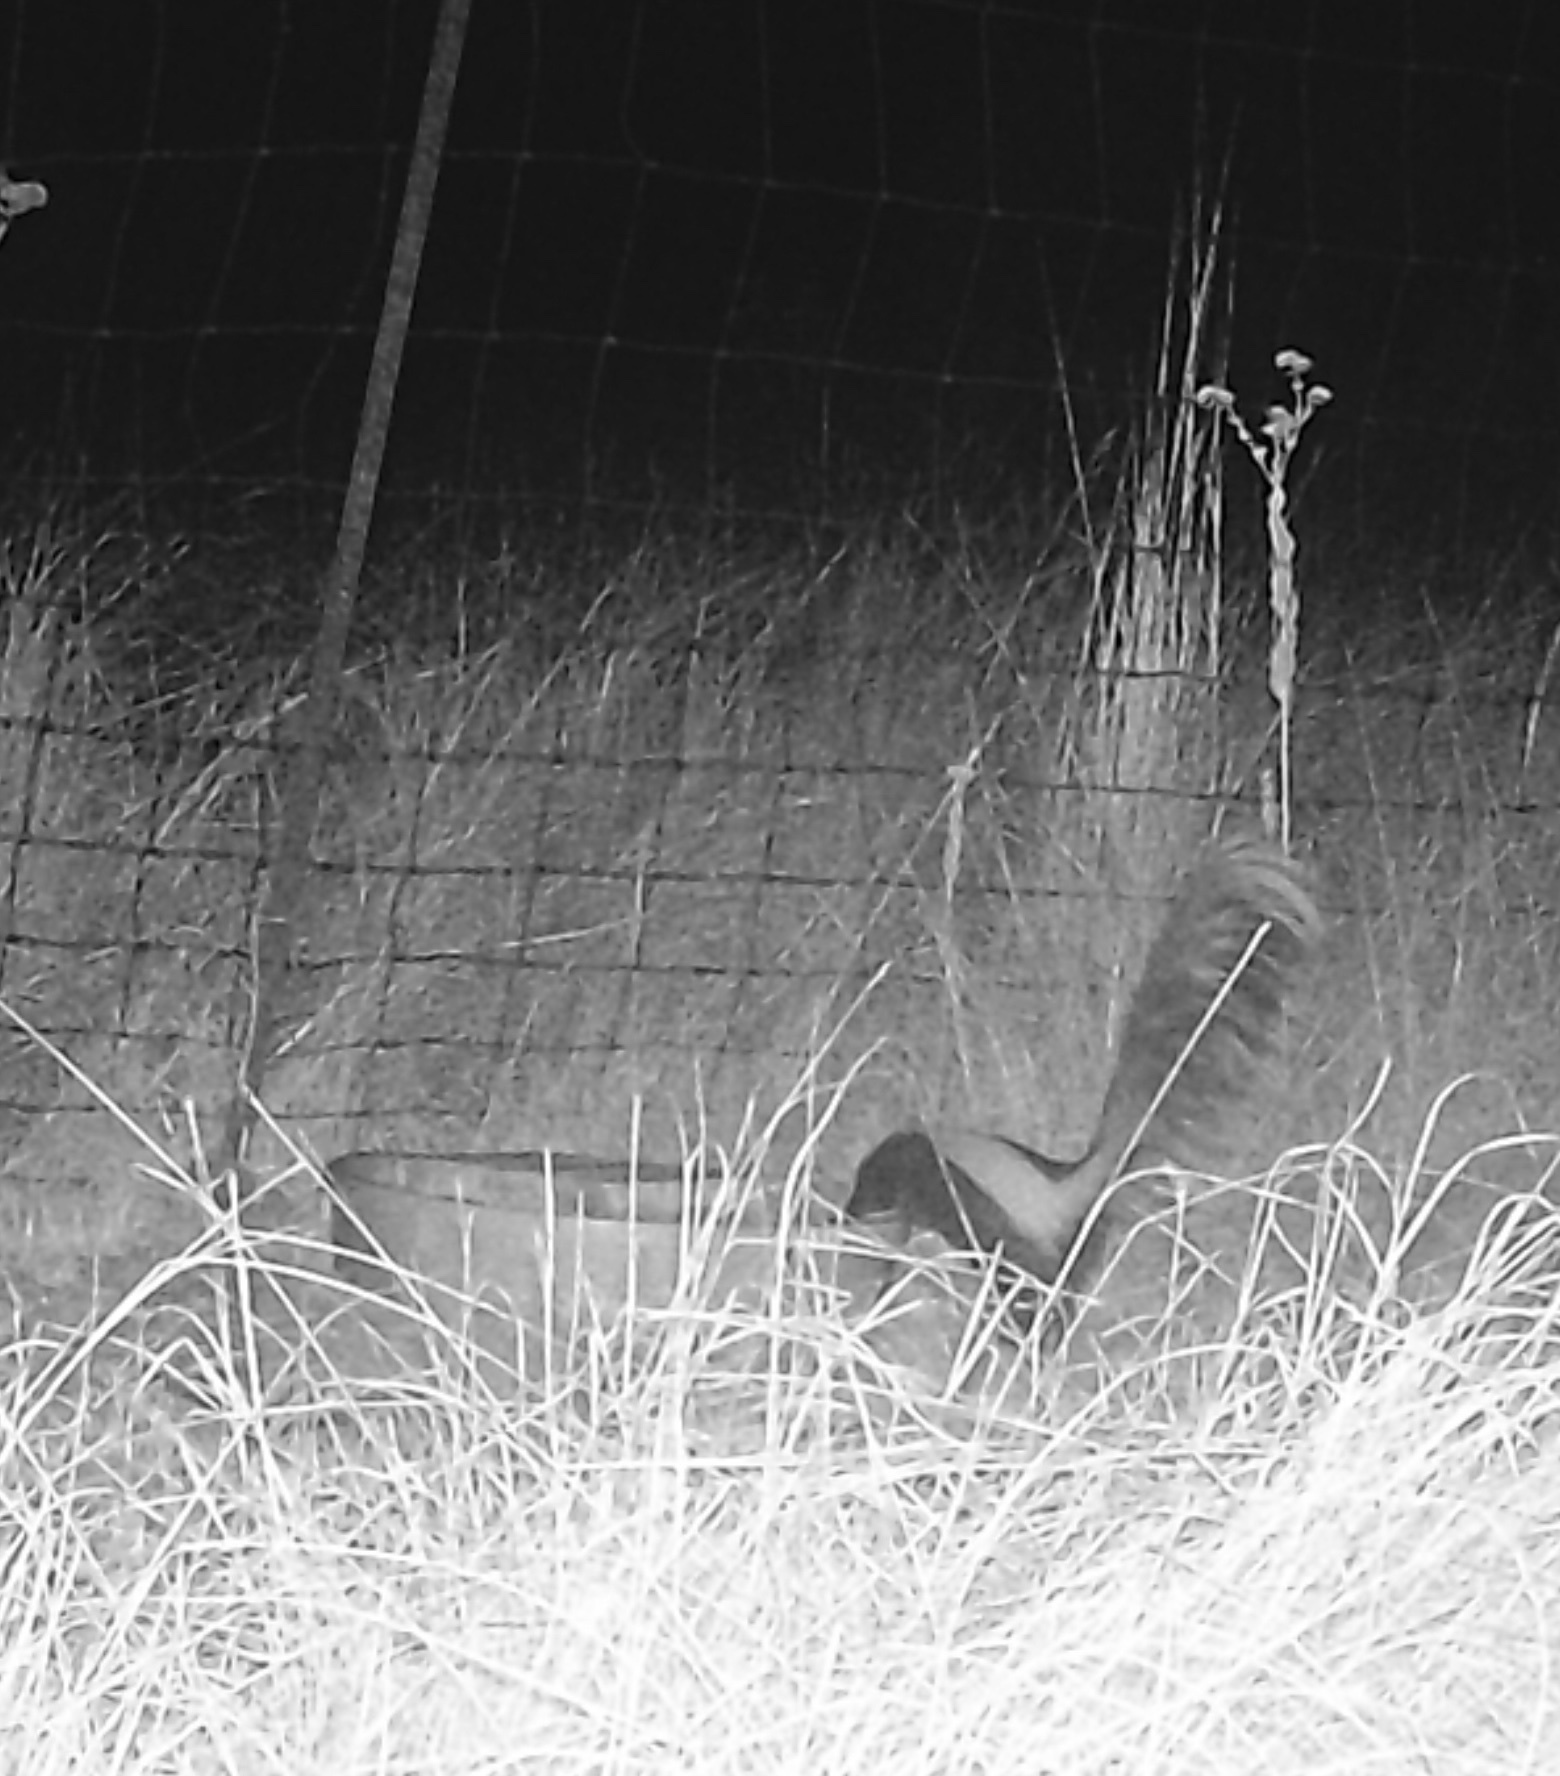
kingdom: Animalia
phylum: Chordata
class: Mammalia
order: Carnivora
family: Mephitidae
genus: Mephitis
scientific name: Mephitis mephitis
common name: Striped skunk
